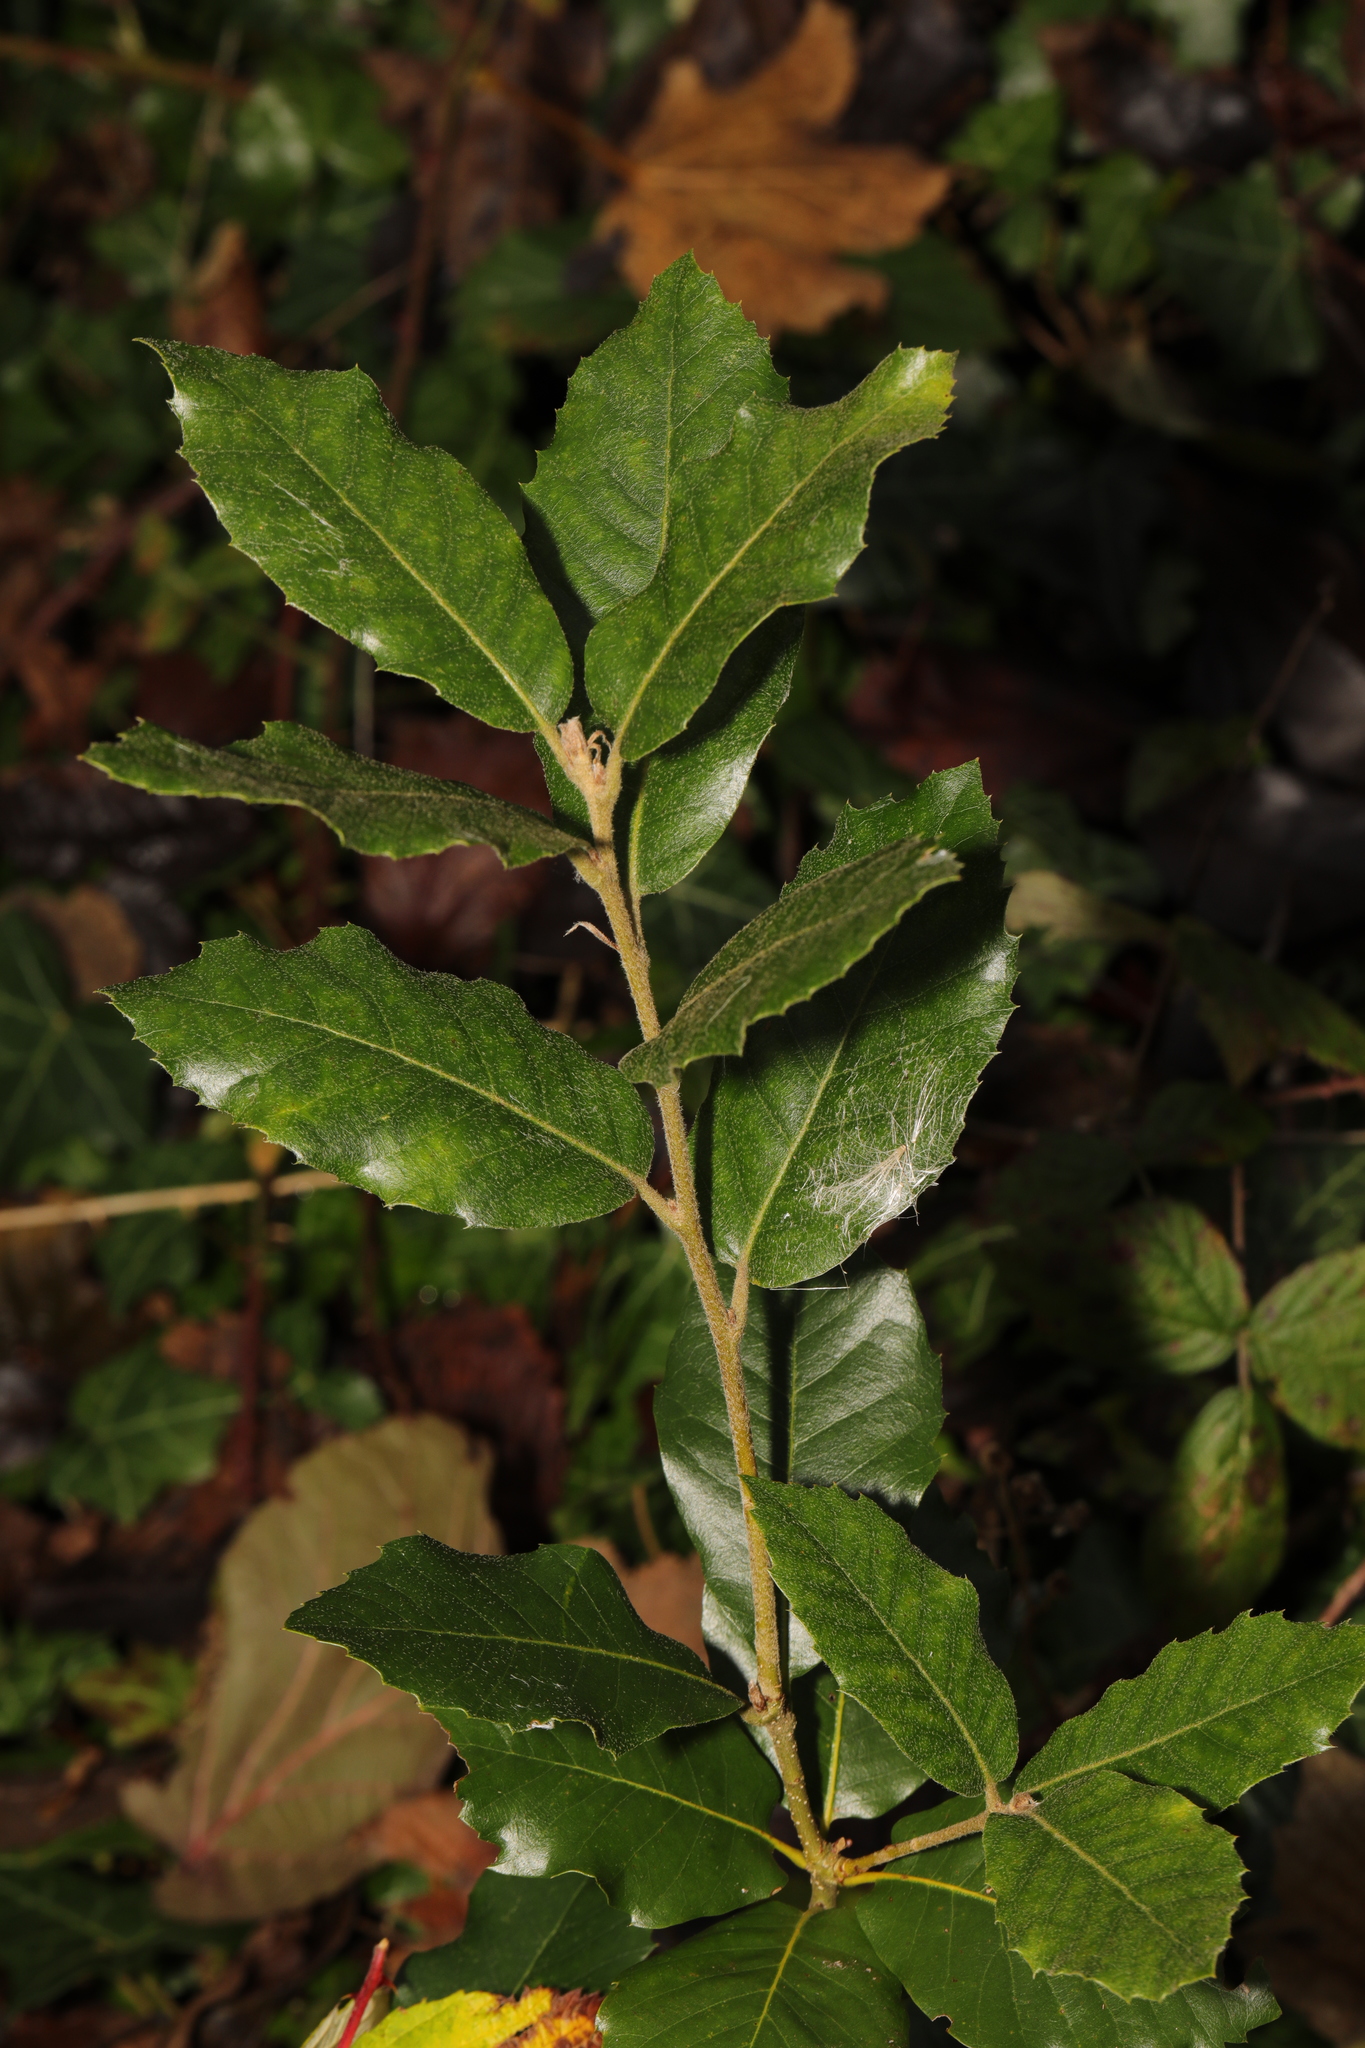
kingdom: Plantae
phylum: Tracheophyta
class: Magnoliopsida
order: Fagales
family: Fagaceae
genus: Quercus
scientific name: Quercus ilex
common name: Evergreen oak
